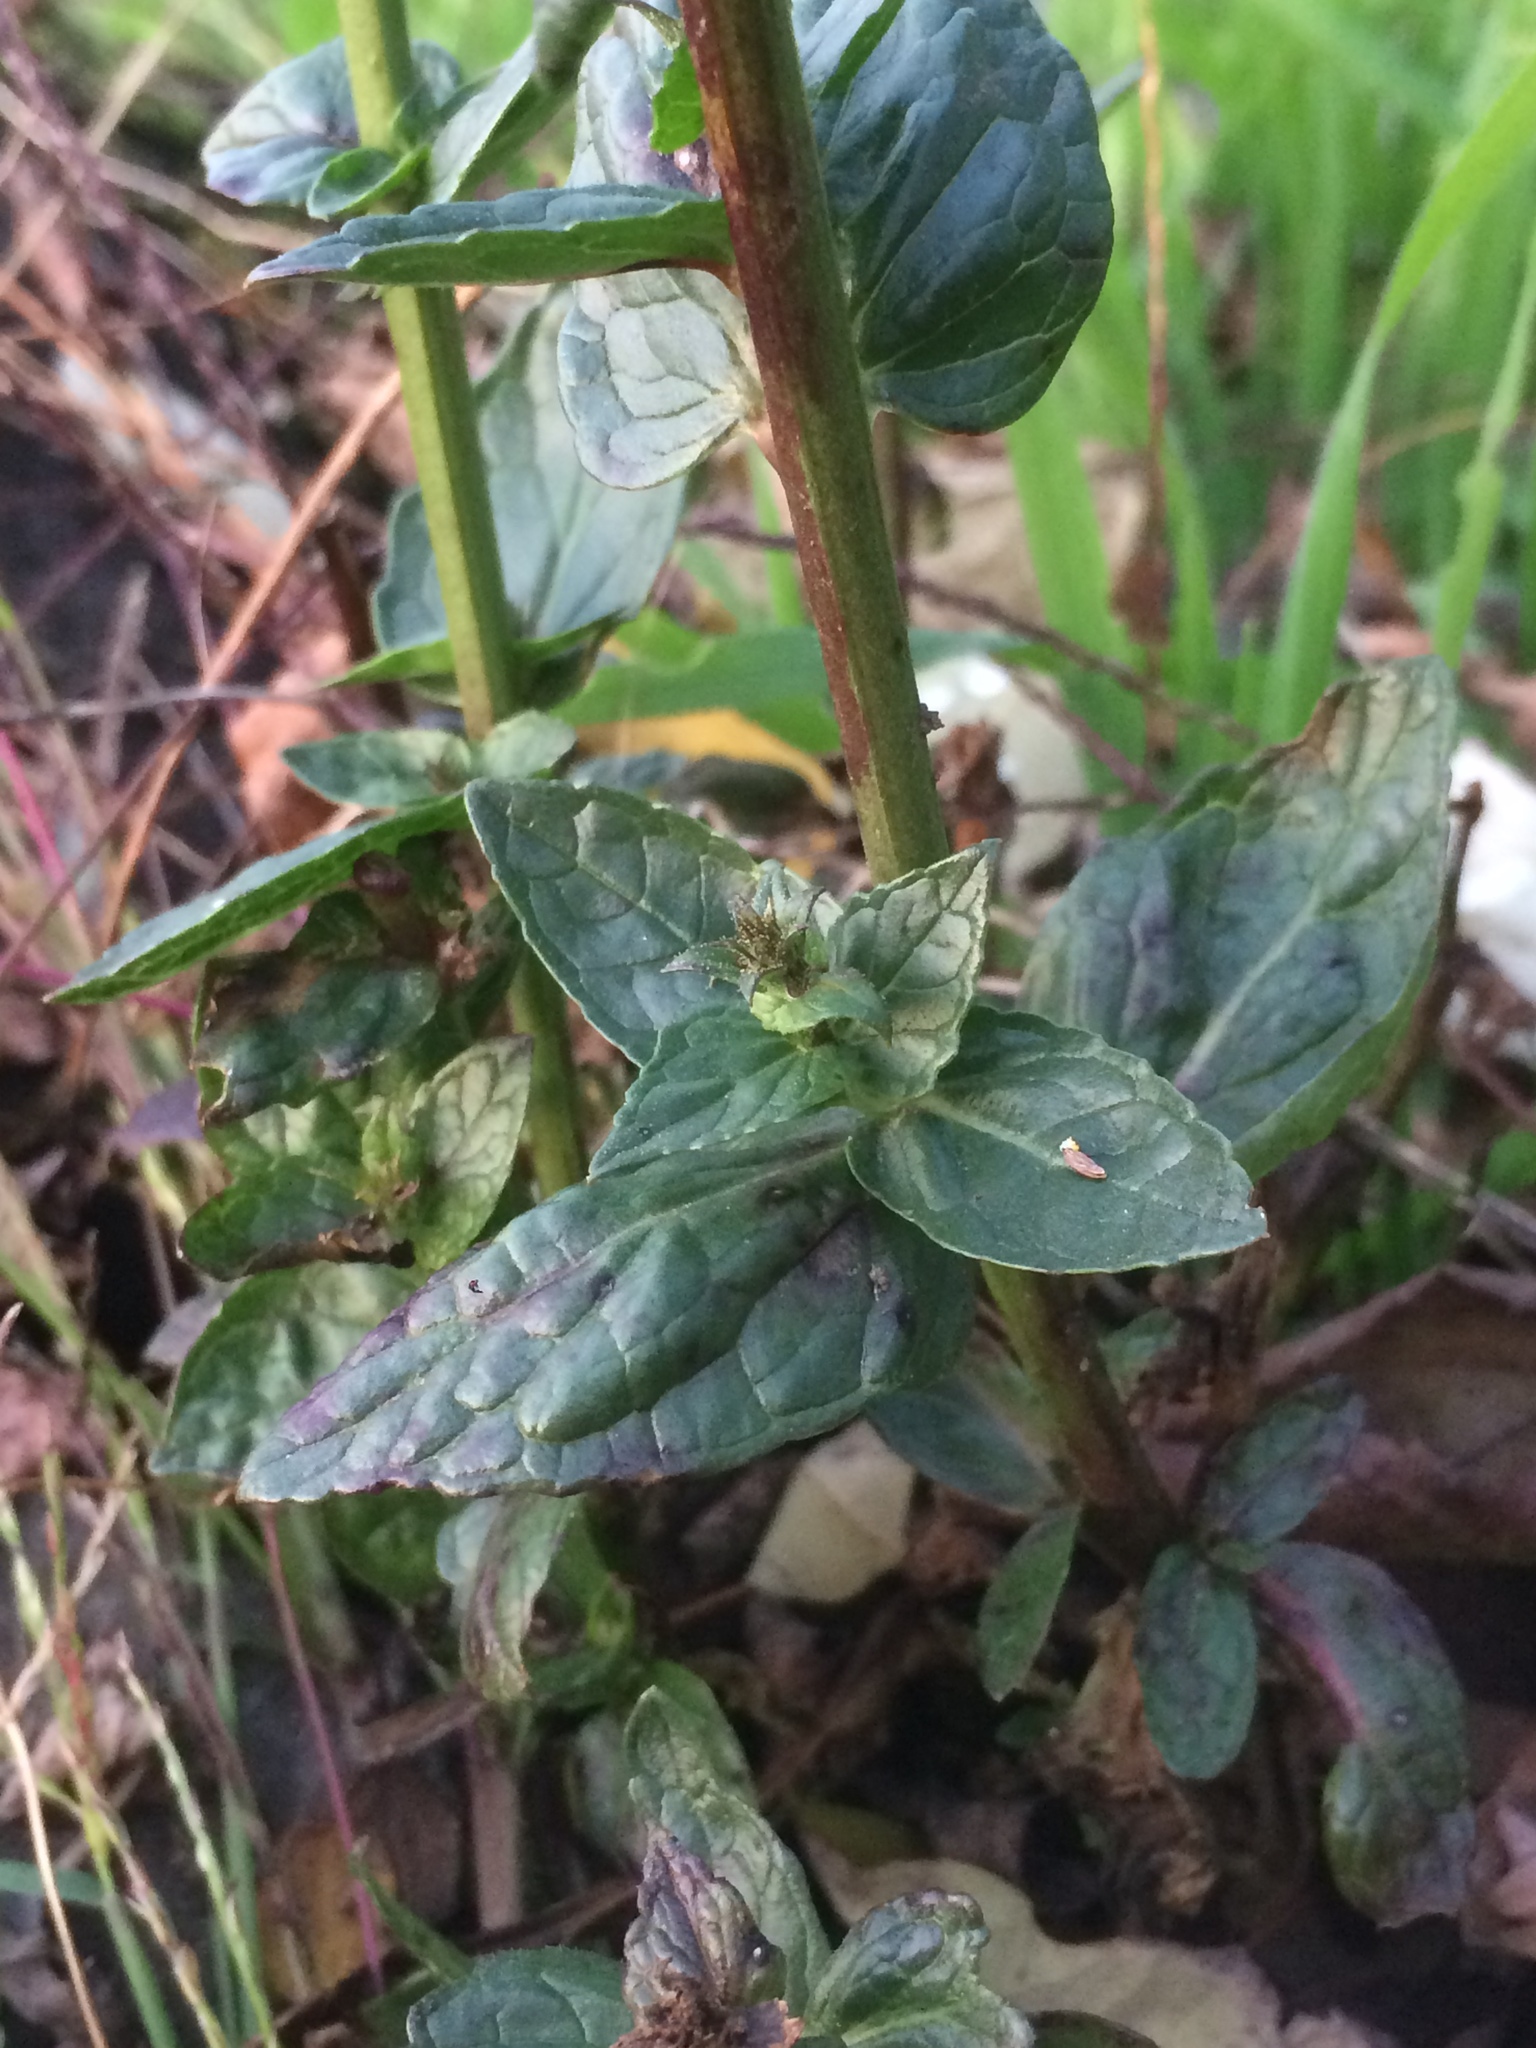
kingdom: Plantae
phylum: Tracheophyta
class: Magnoliopsida
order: Lamiales
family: Scrophulariaceae
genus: Verbascum
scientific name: Verbascum blattaria
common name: Moth mullein
